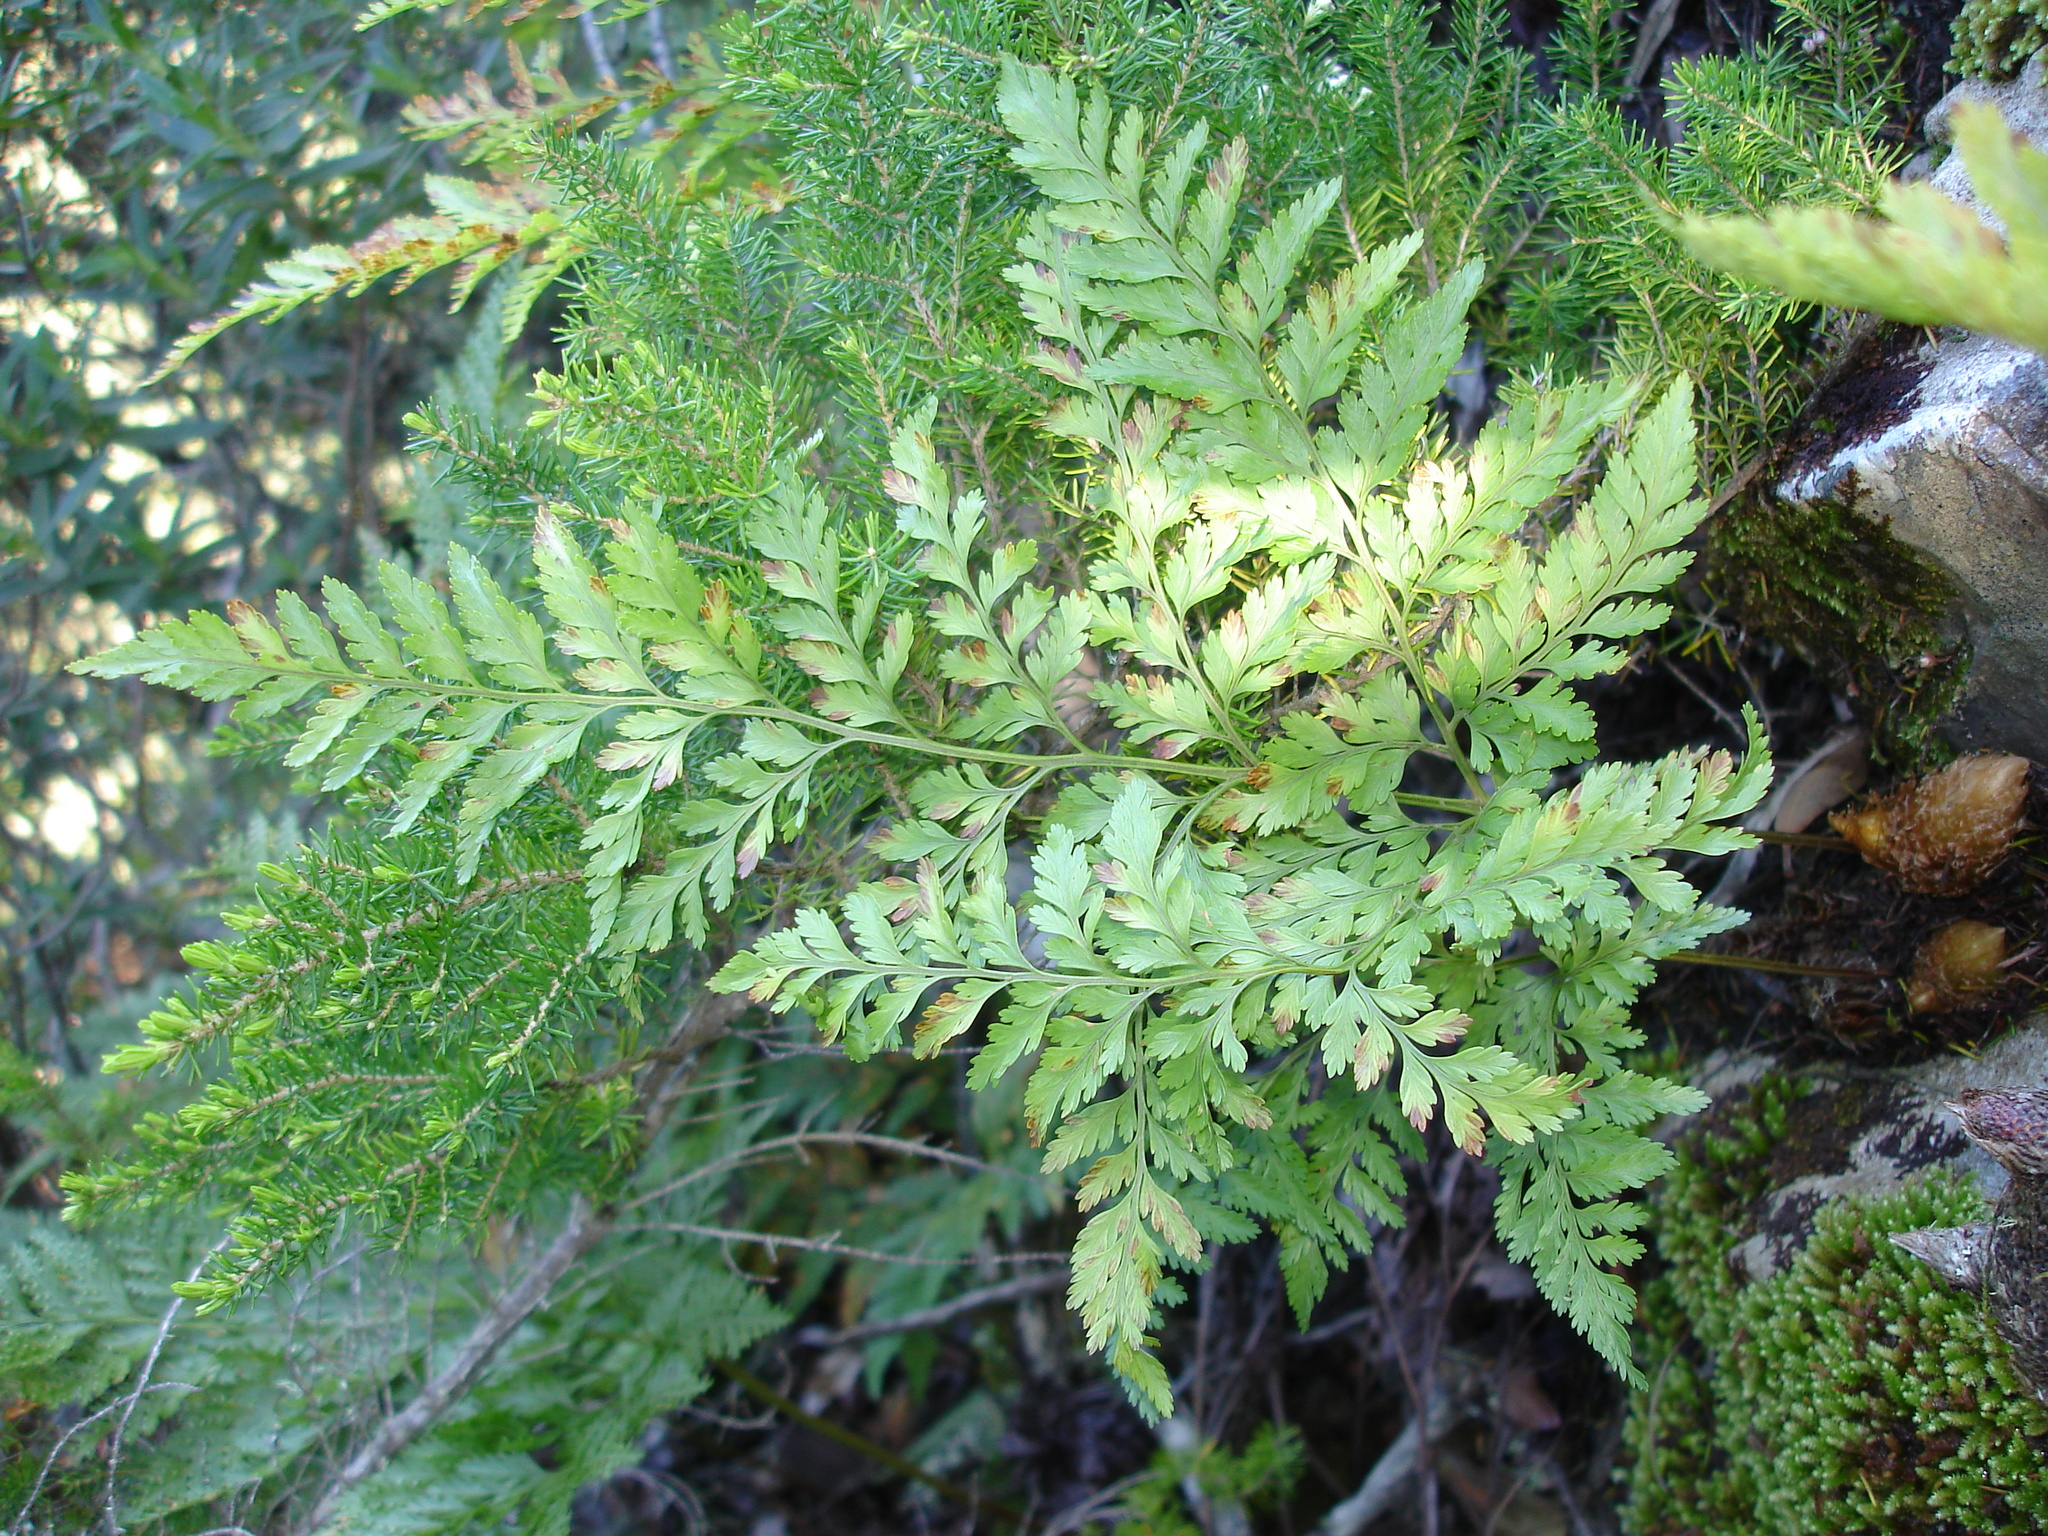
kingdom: Plantae
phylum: Tracheophyta
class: Polypodiopsida
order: Polypodiales
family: Davalliaceae
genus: Davallia
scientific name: Davallia canariensis
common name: Hare's-foot fern
